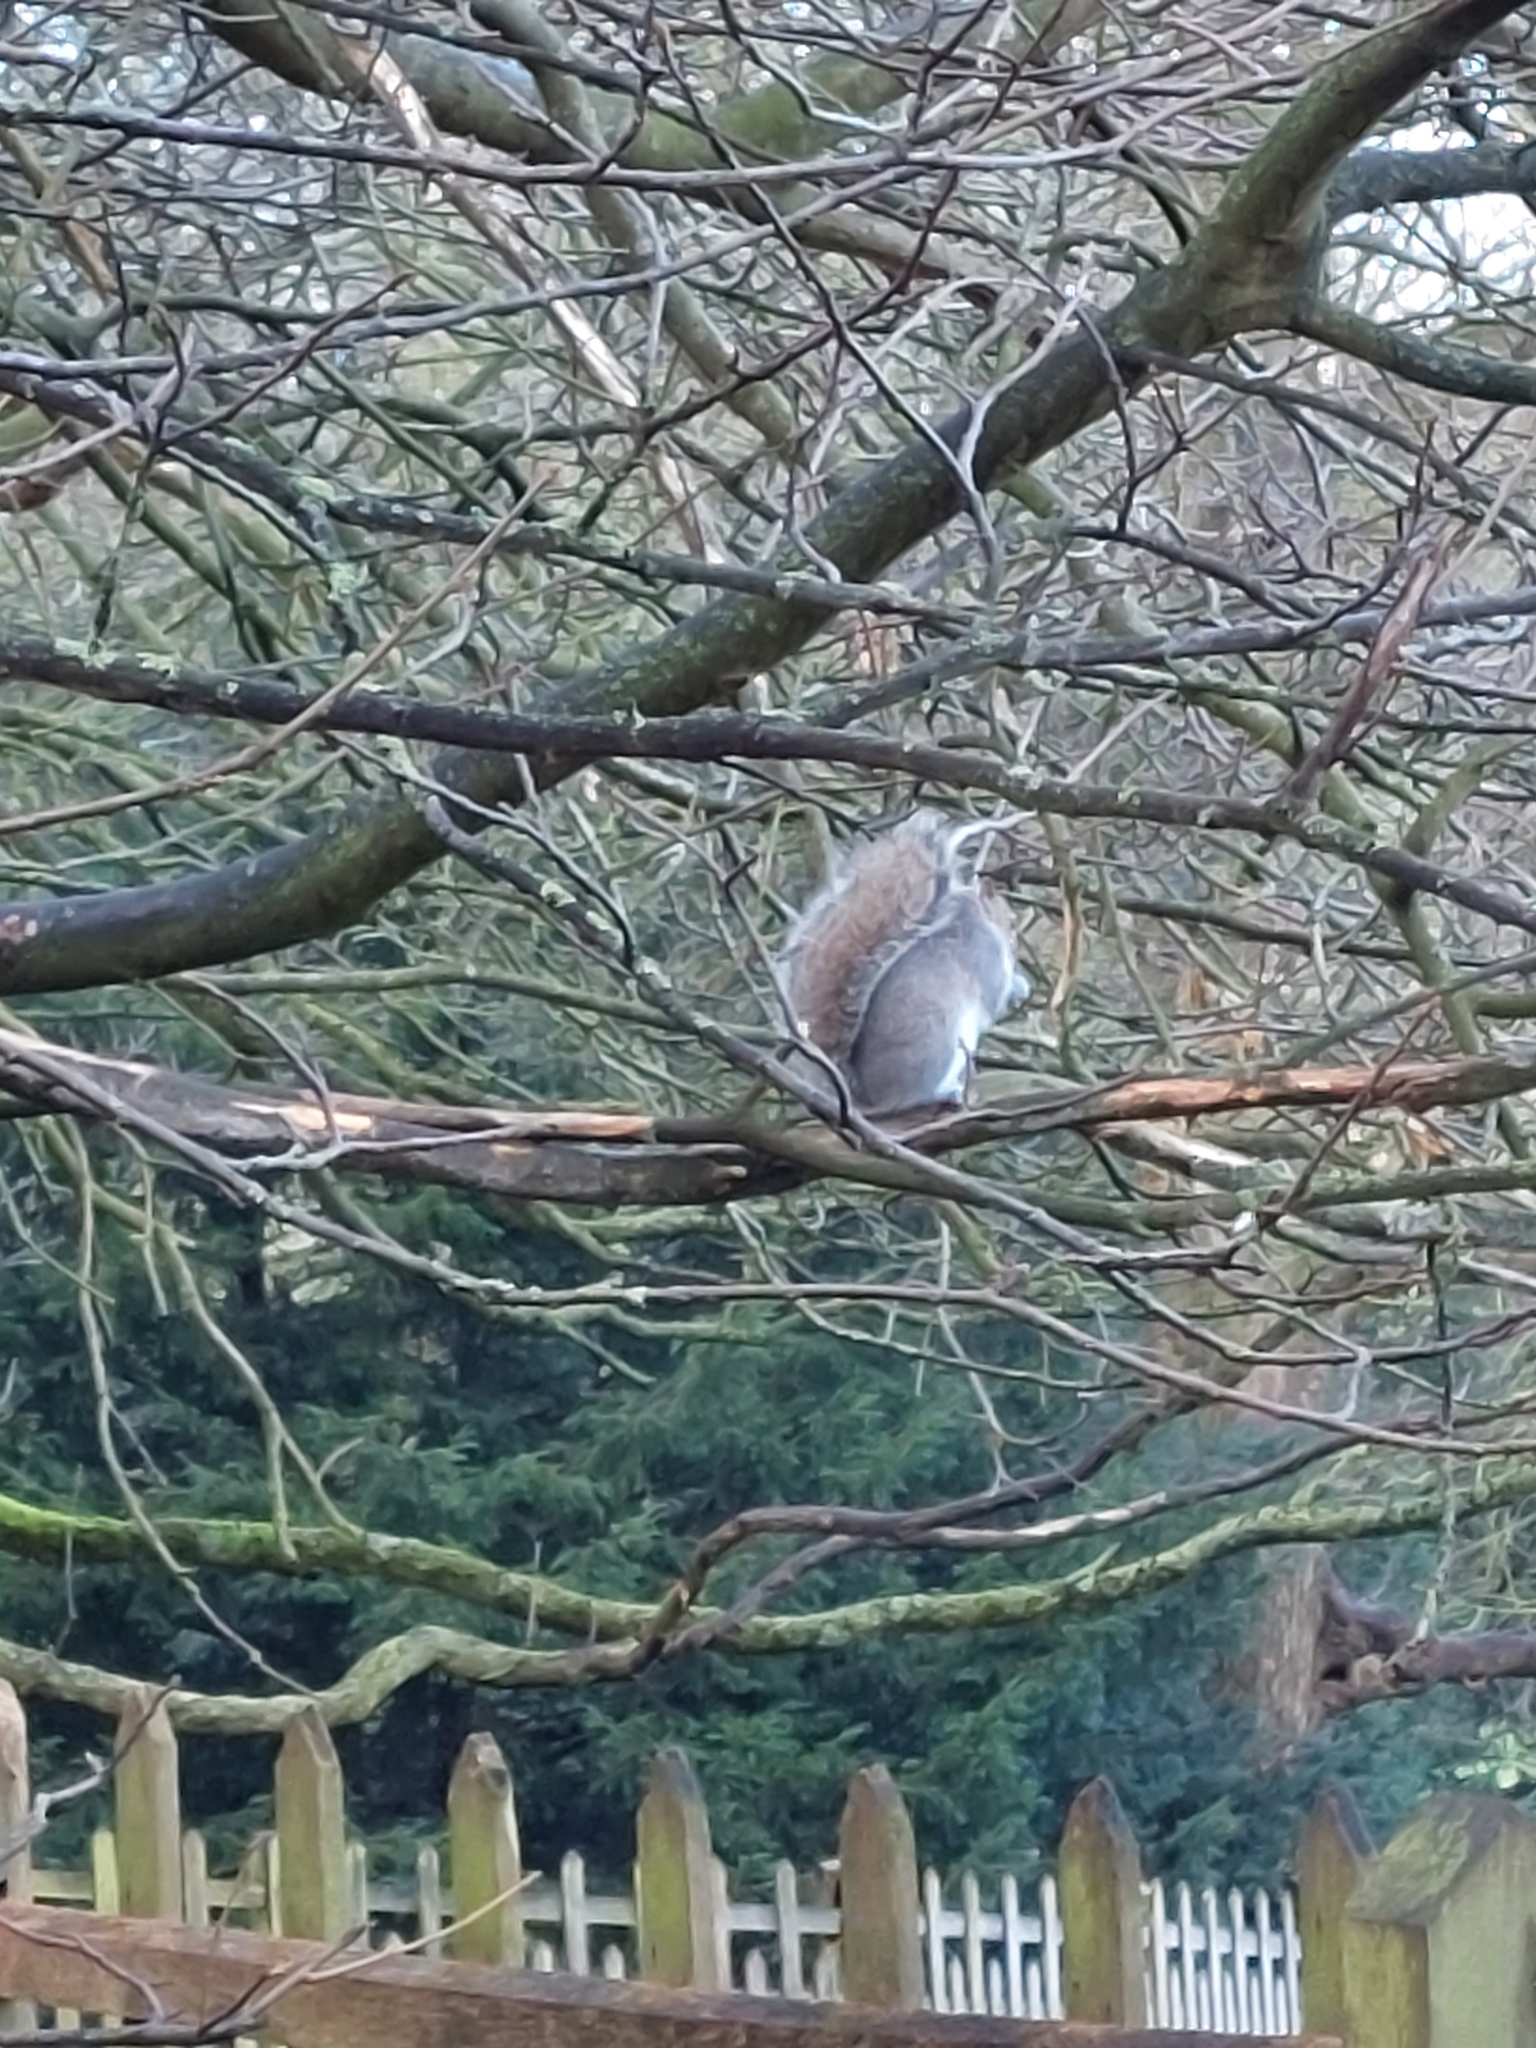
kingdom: Animalia
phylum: Chordata
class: Mammalia
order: Rodentia
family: Sciuridae
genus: Sciurus
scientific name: Sciurus carolinensis
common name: Eastern gray squirrel
